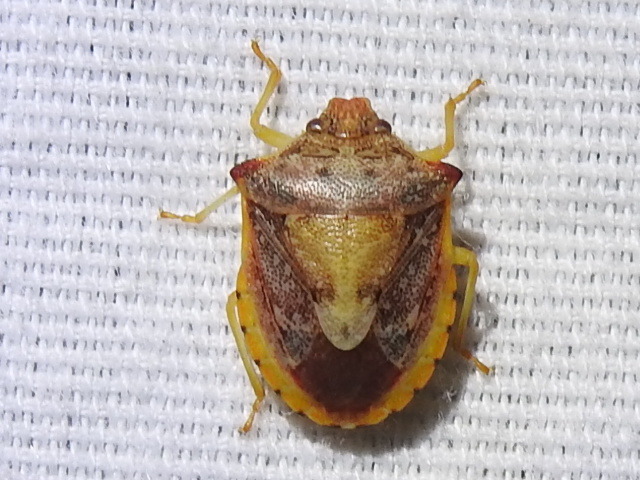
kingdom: Animalia
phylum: Arthropoda
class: Insecta
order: Hemiptera
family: Pentatomidae
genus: Dendrocoris
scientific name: Dendrocoris humeralis
